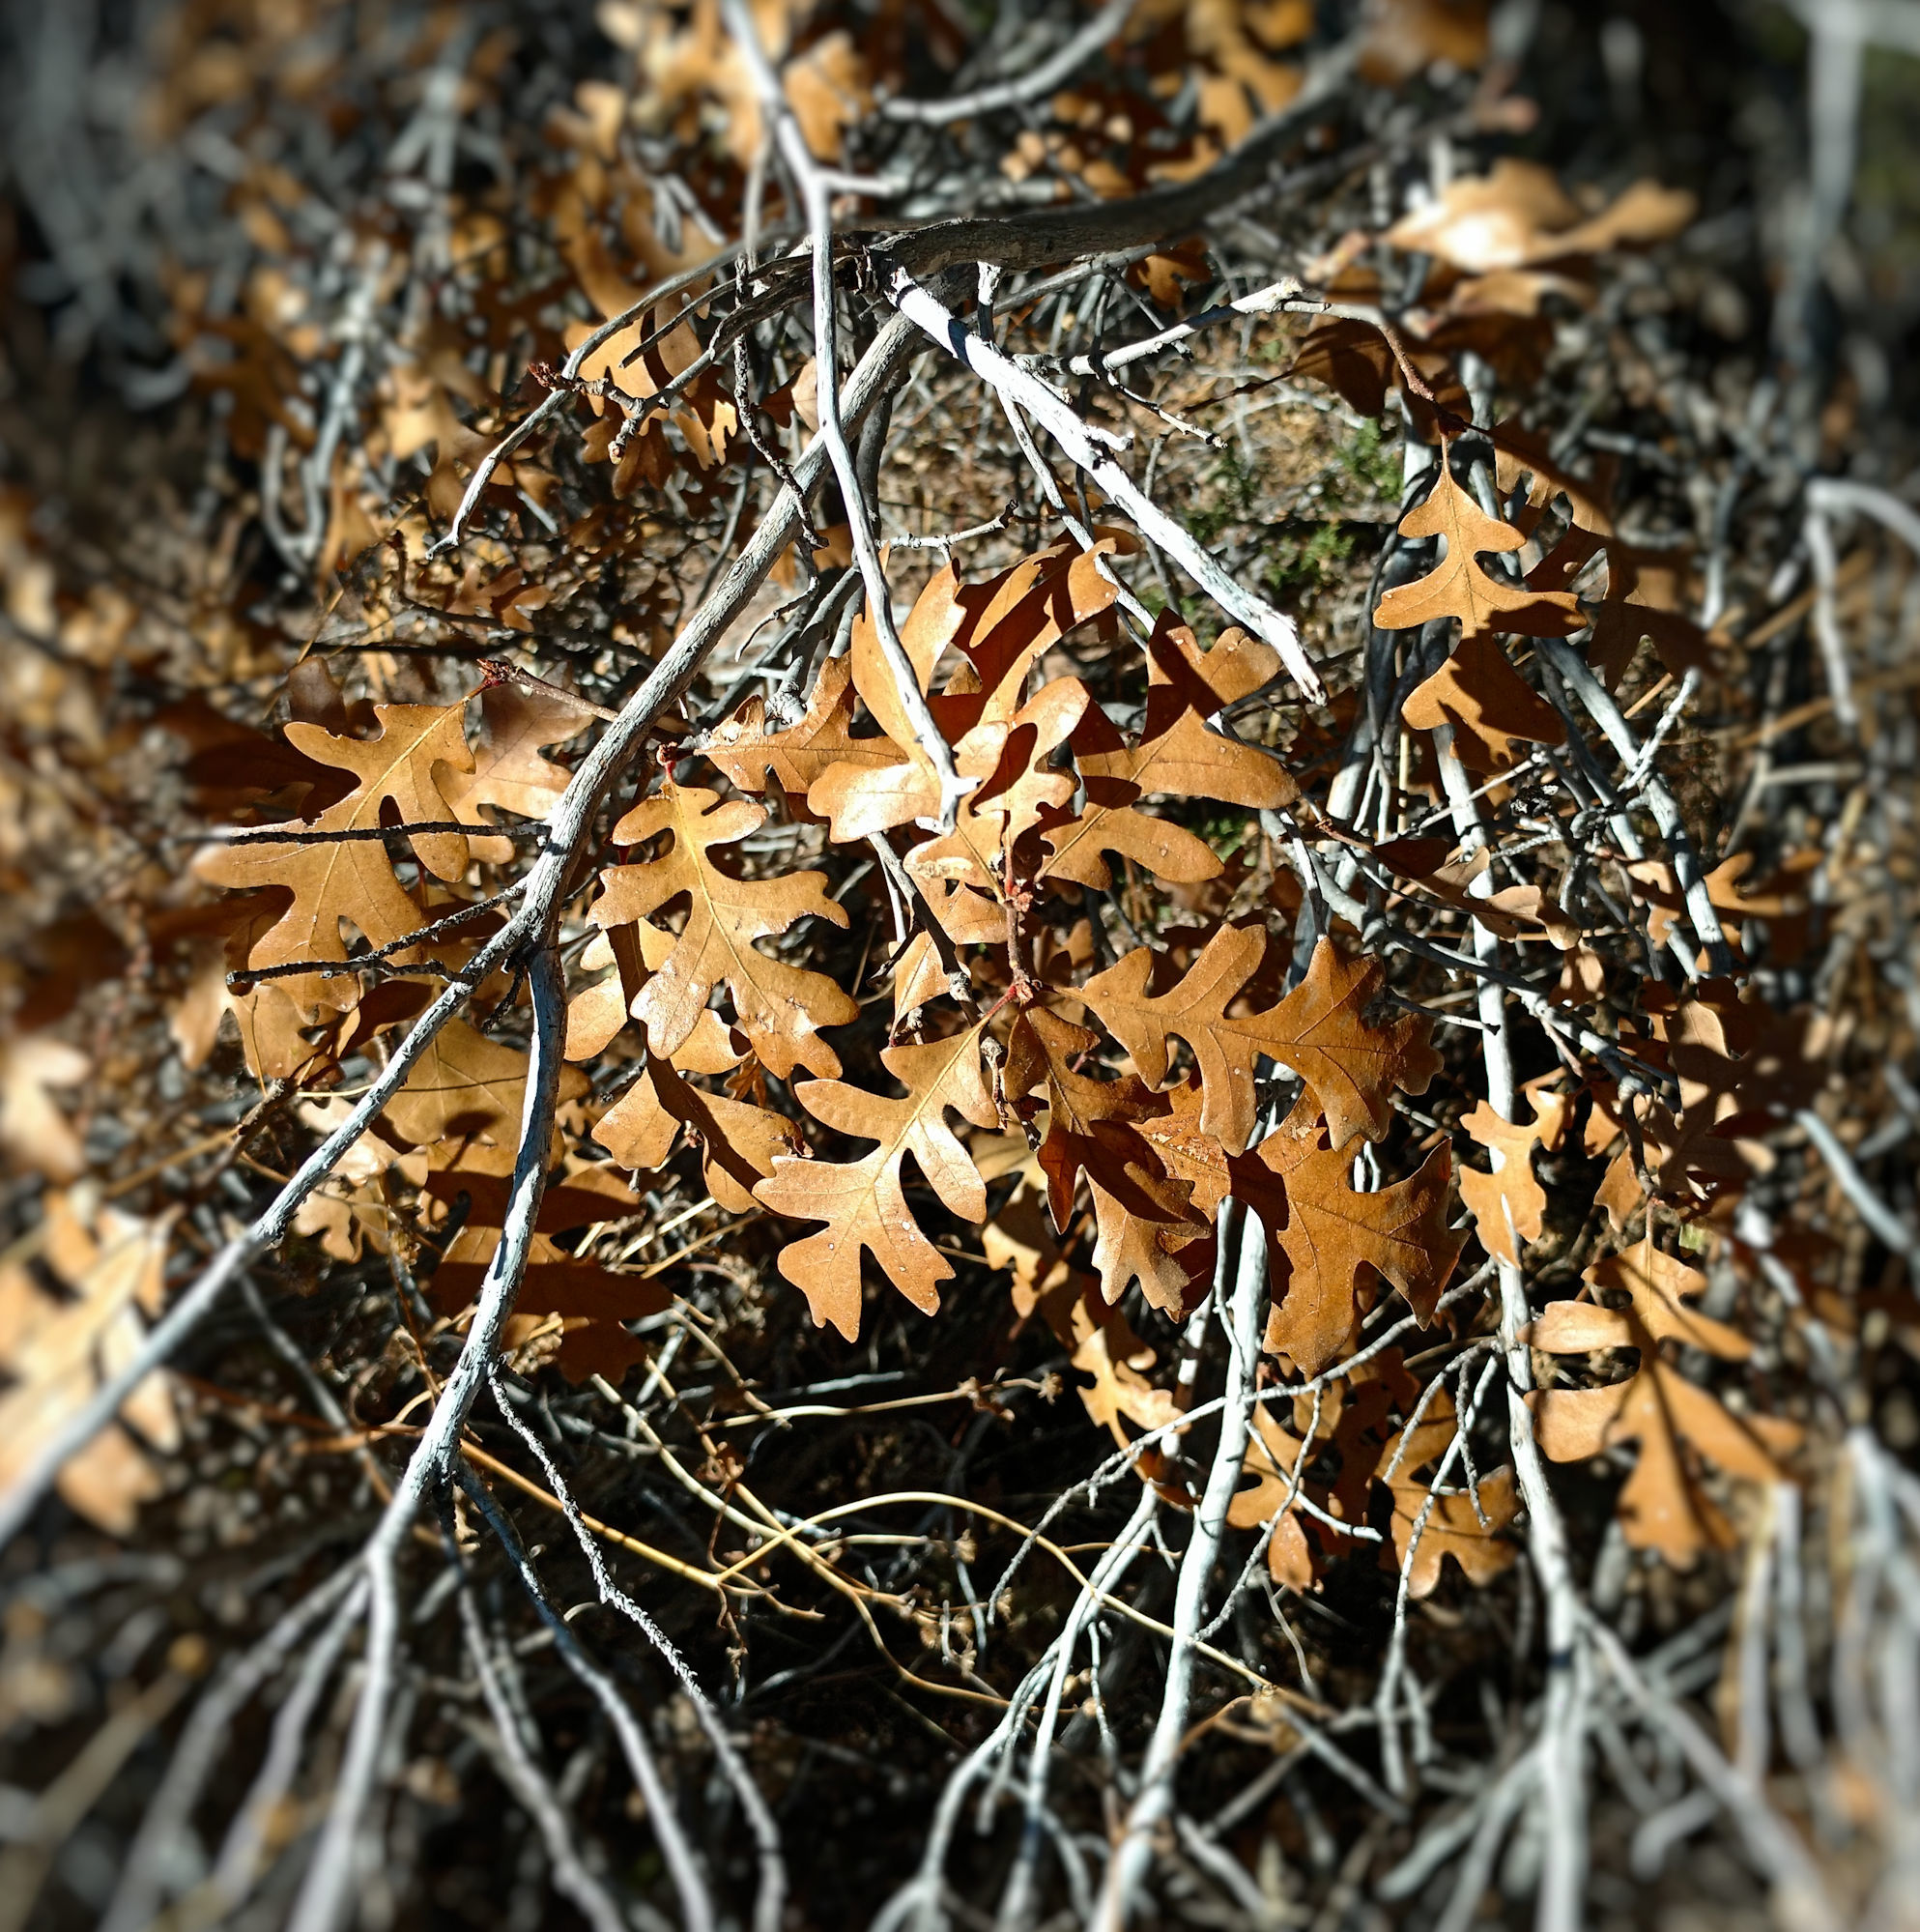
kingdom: Plantae
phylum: Tracheophyta
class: Magnoliopsida
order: Fagales
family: Fagaceae
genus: Quercus
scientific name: Quercus gambelii
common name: Gambel oak
